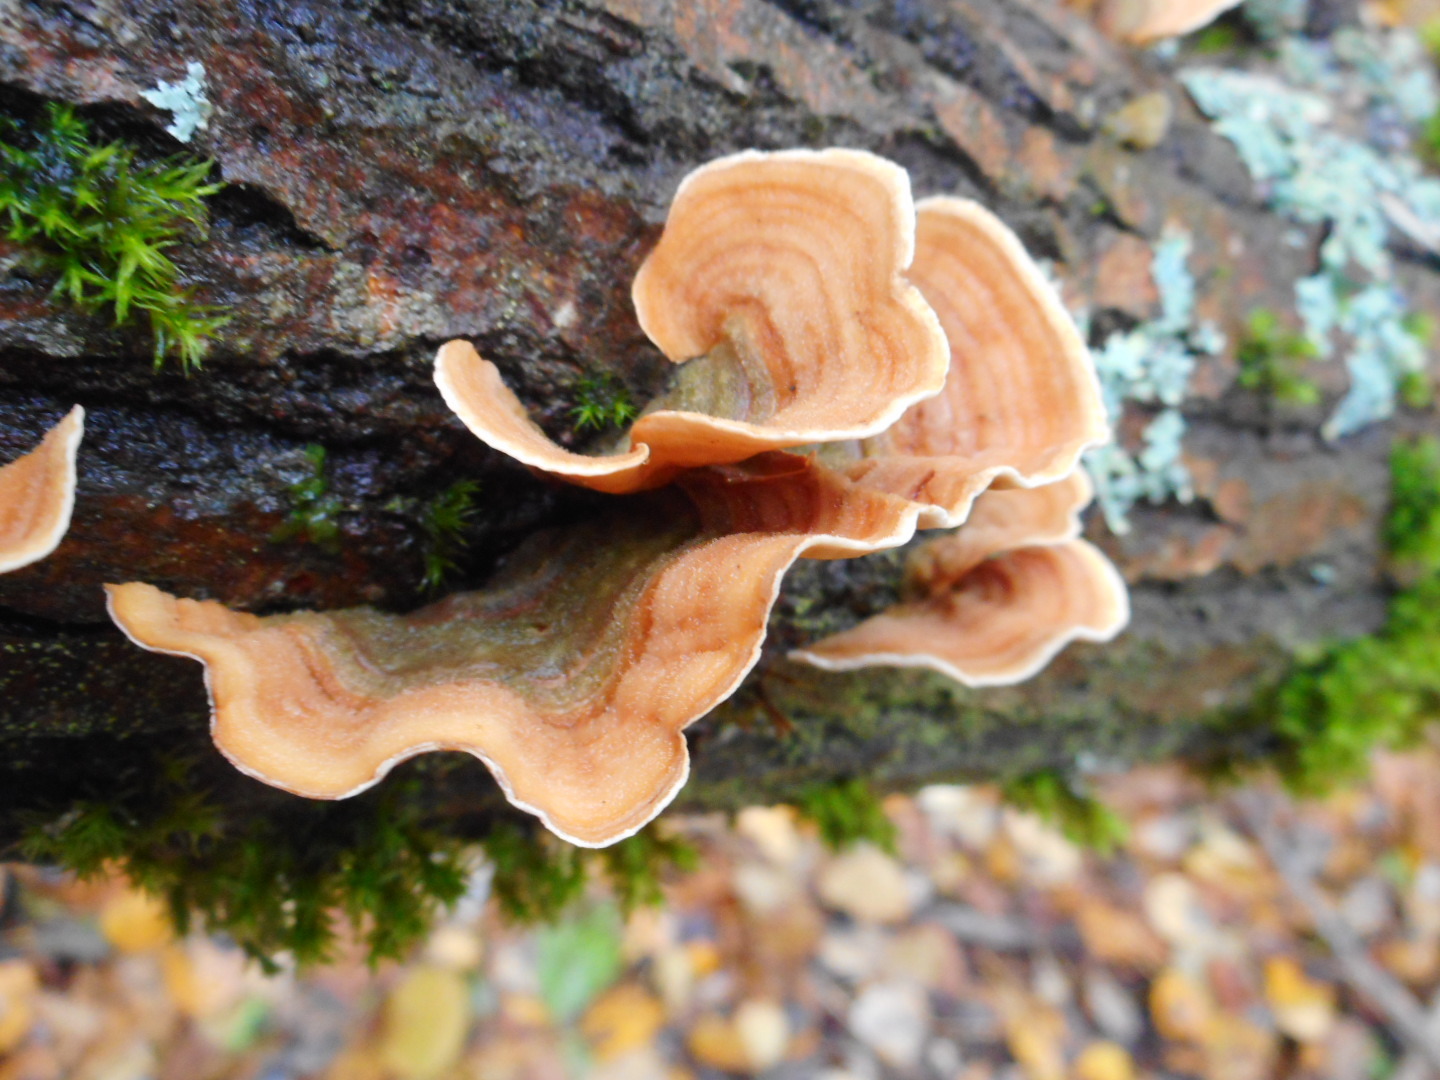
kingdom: Fungi
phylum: Basidiomycota
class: Agaricomycetes
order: Russulales
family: Stereaceae
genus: Stereum
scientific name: Stereum hirsutum
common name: Hairy curtain crust
